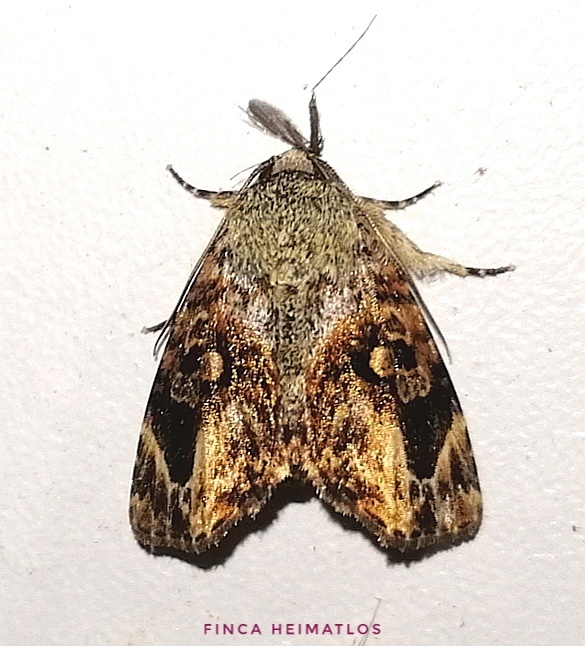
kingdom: Animalia
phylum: Arthropoda
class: Insecta
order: Lepidoptera
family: Noctuidae
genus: Drobeta
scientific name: Drobeta melagonia
